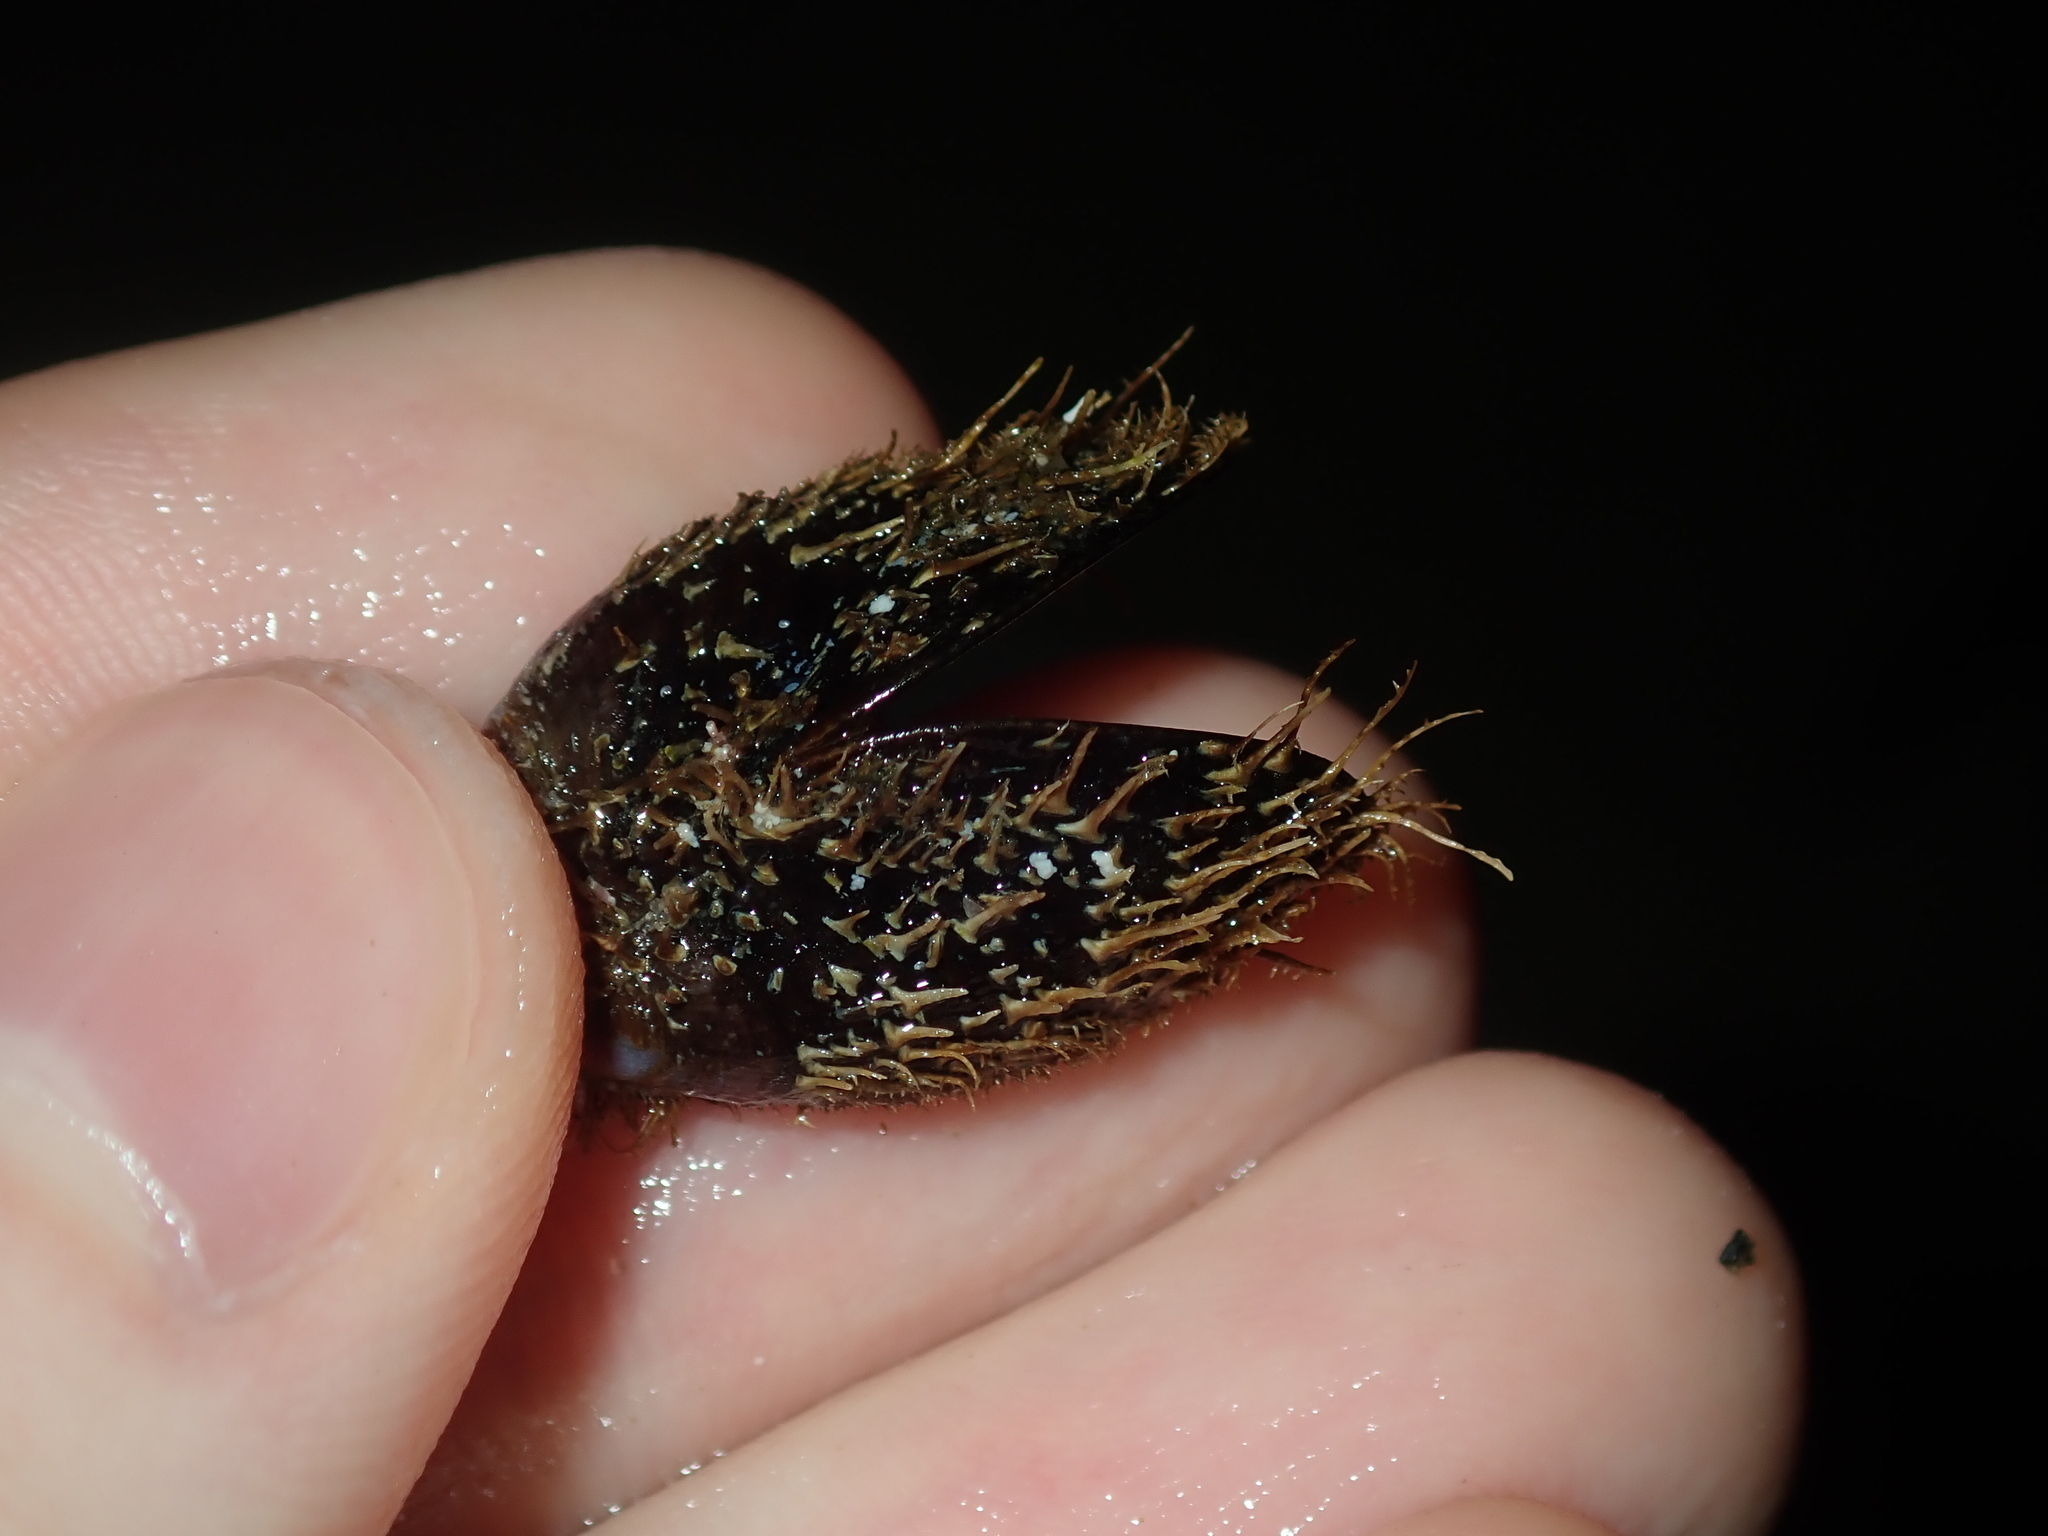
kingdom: Animalia
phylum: Mollusca
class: Bivalvia
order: Mytilida
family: Mytilidae
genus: Trichomya
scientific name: Trichomya hirsuta
